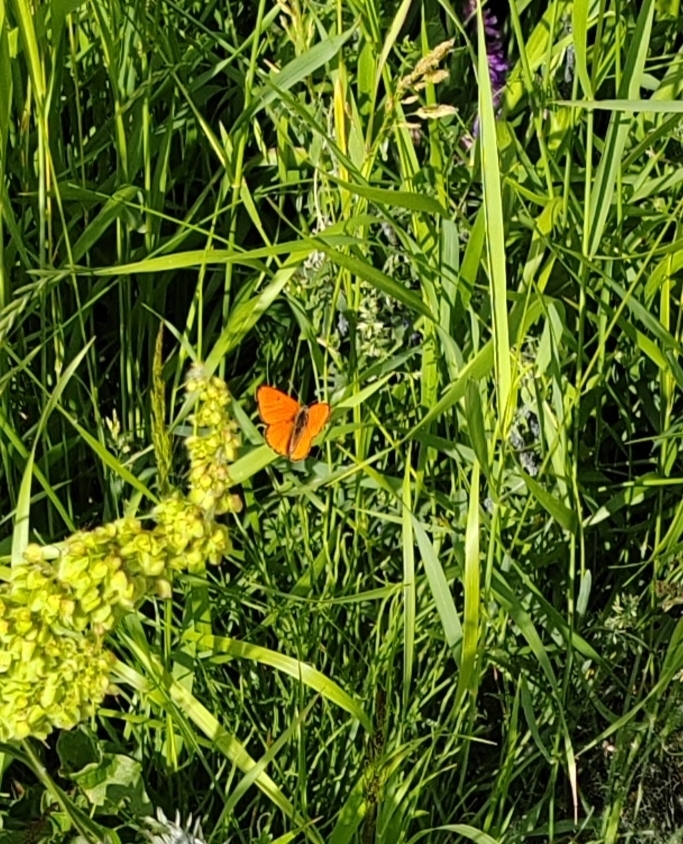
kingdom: Animalia
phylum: Arthropoda
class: Insecta
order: Lepidoptera
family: Lycaenidae
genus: Lycaena
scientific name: Lycaena dispar
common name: Large copper
